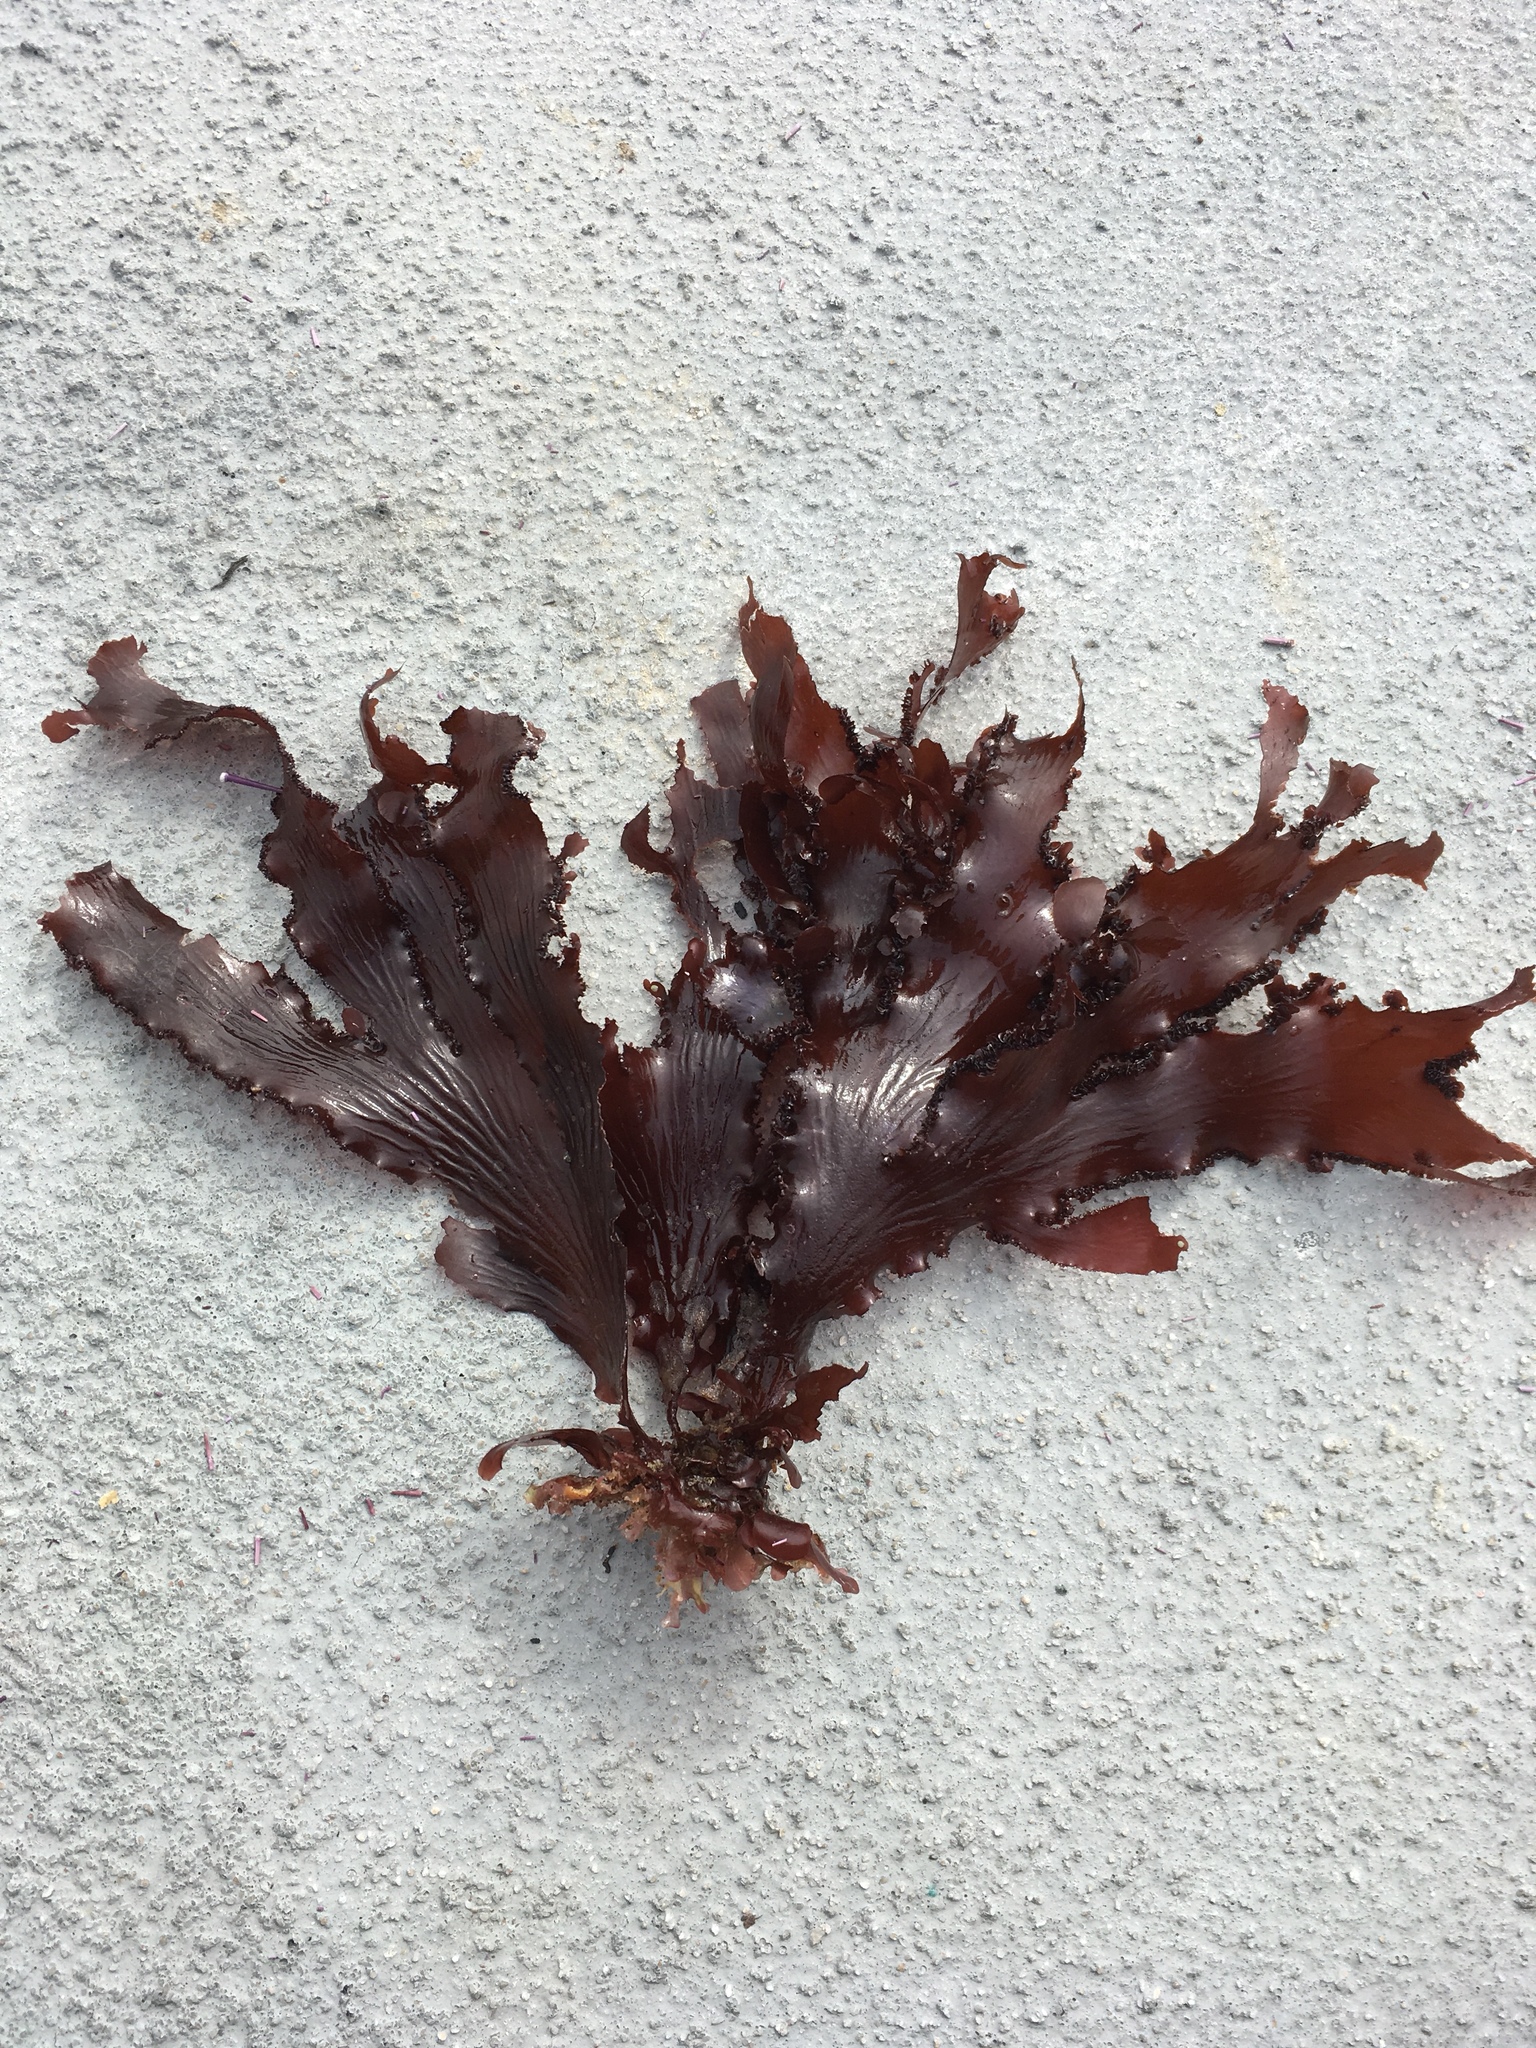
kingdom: Plantae
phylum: Rhodophyta
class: Florideophyceae
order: Ceramiales
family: Delesseriaceae
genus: Cryptopleura
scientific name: Cryptopleura ruprechtiana
